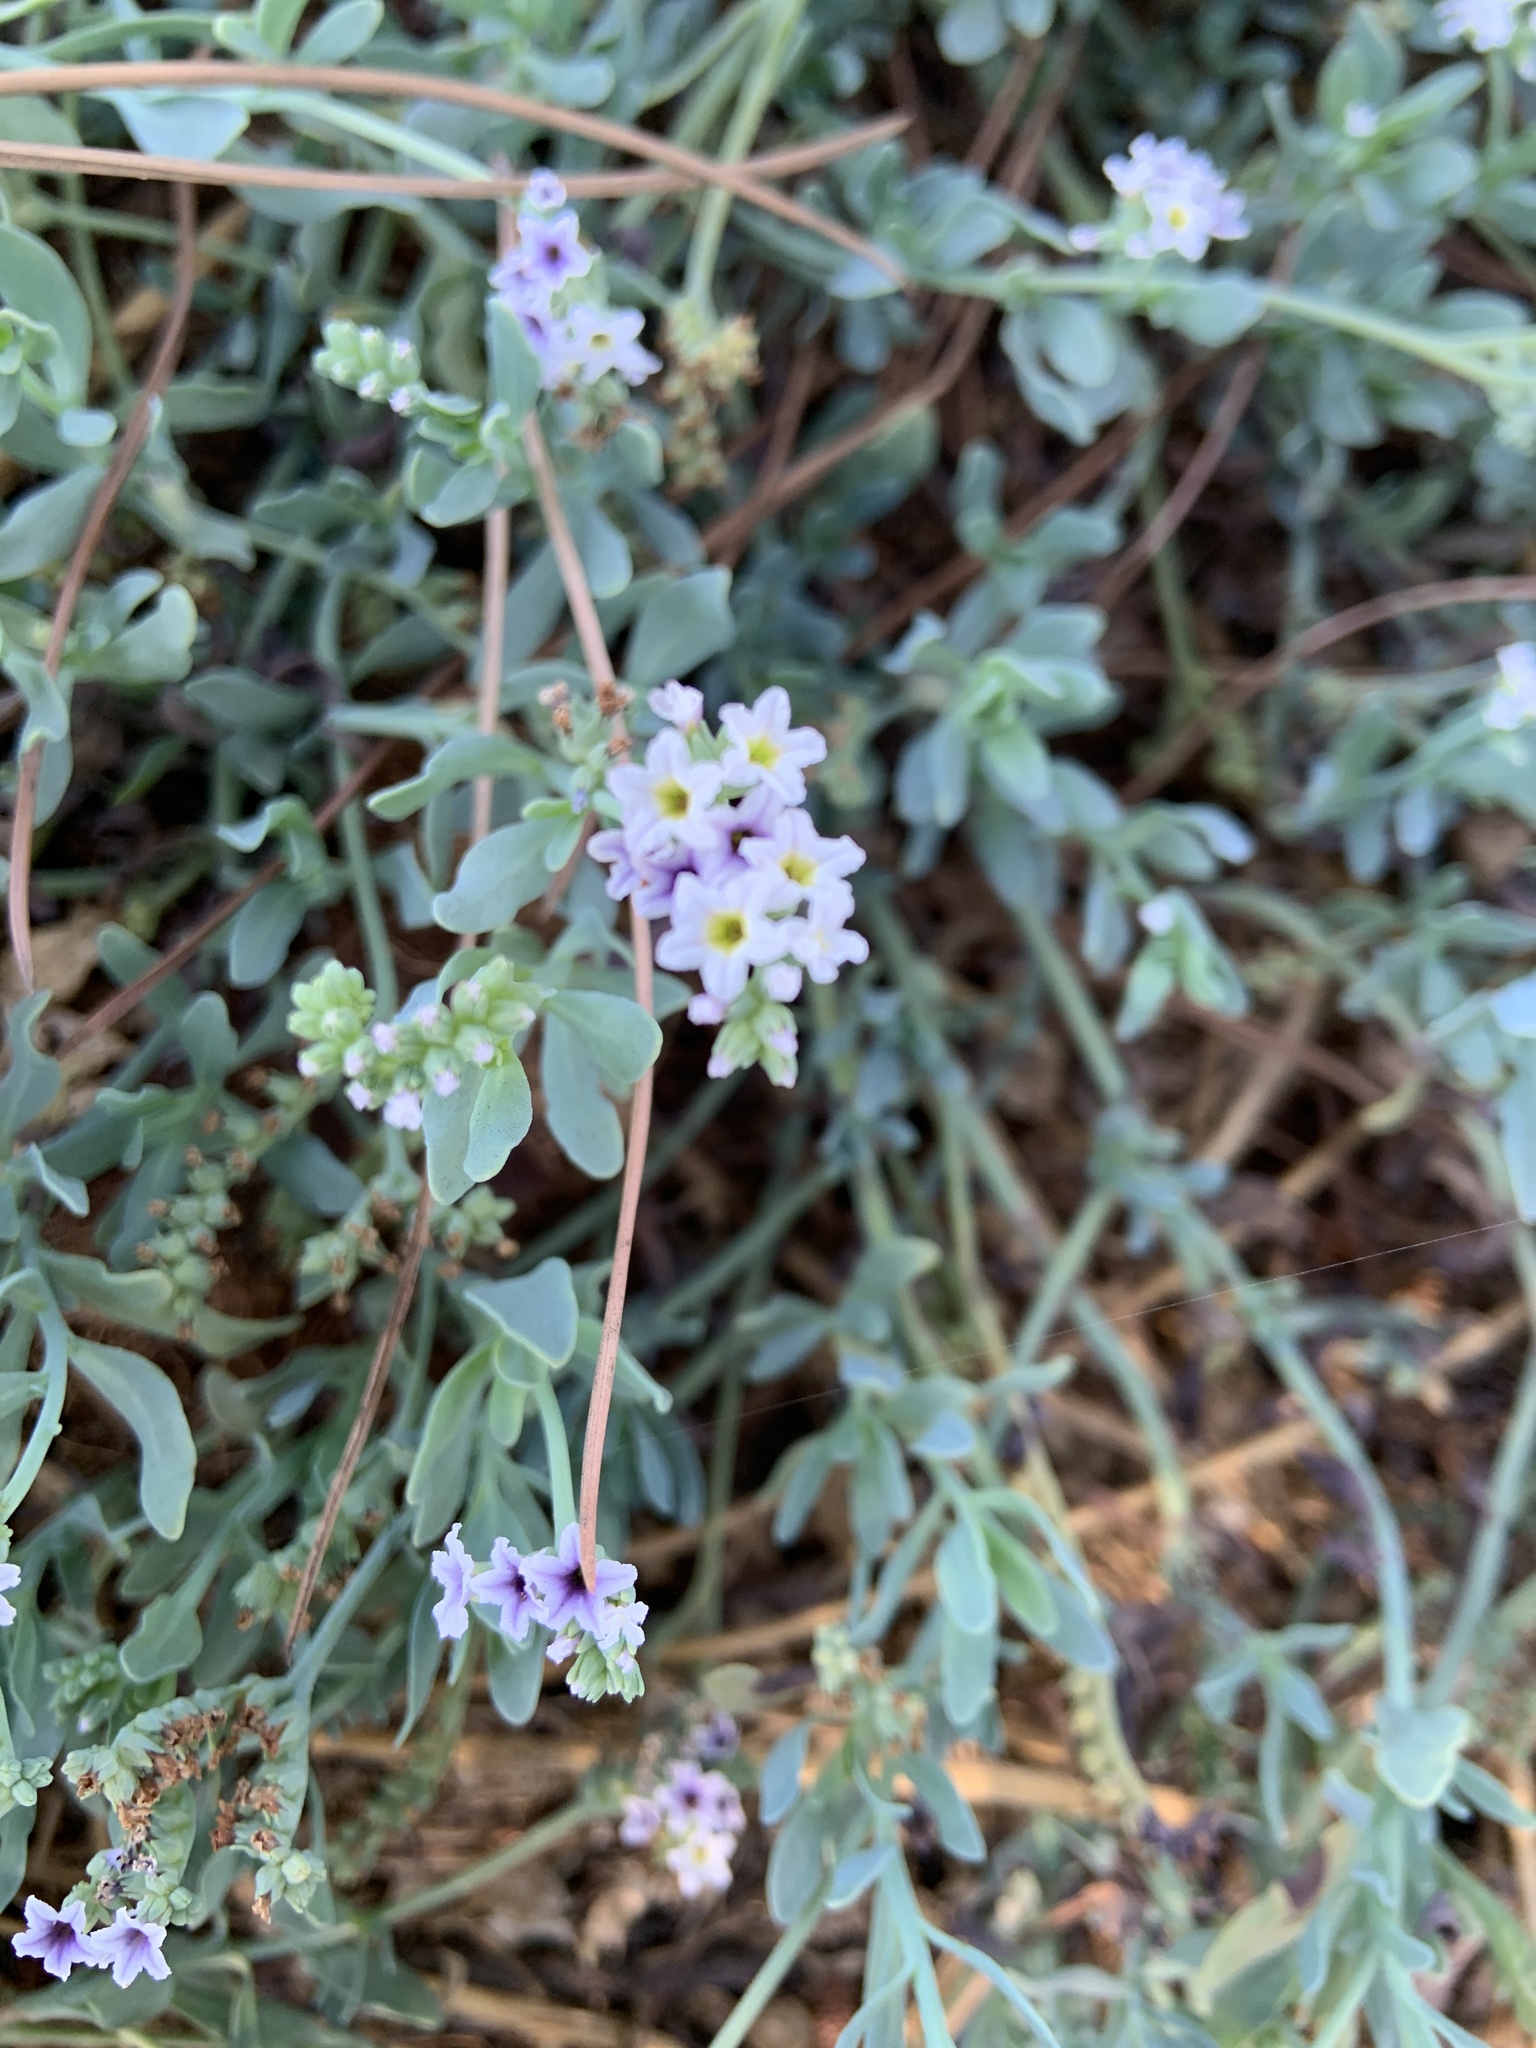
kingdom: Plantae
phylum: Tracheophyta
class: Magnoliopsida
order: Boraginales
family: Heliotropiaceae
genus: Heliotropium
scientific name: Heliotropium curassavicum
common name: Seaside heliotrope
